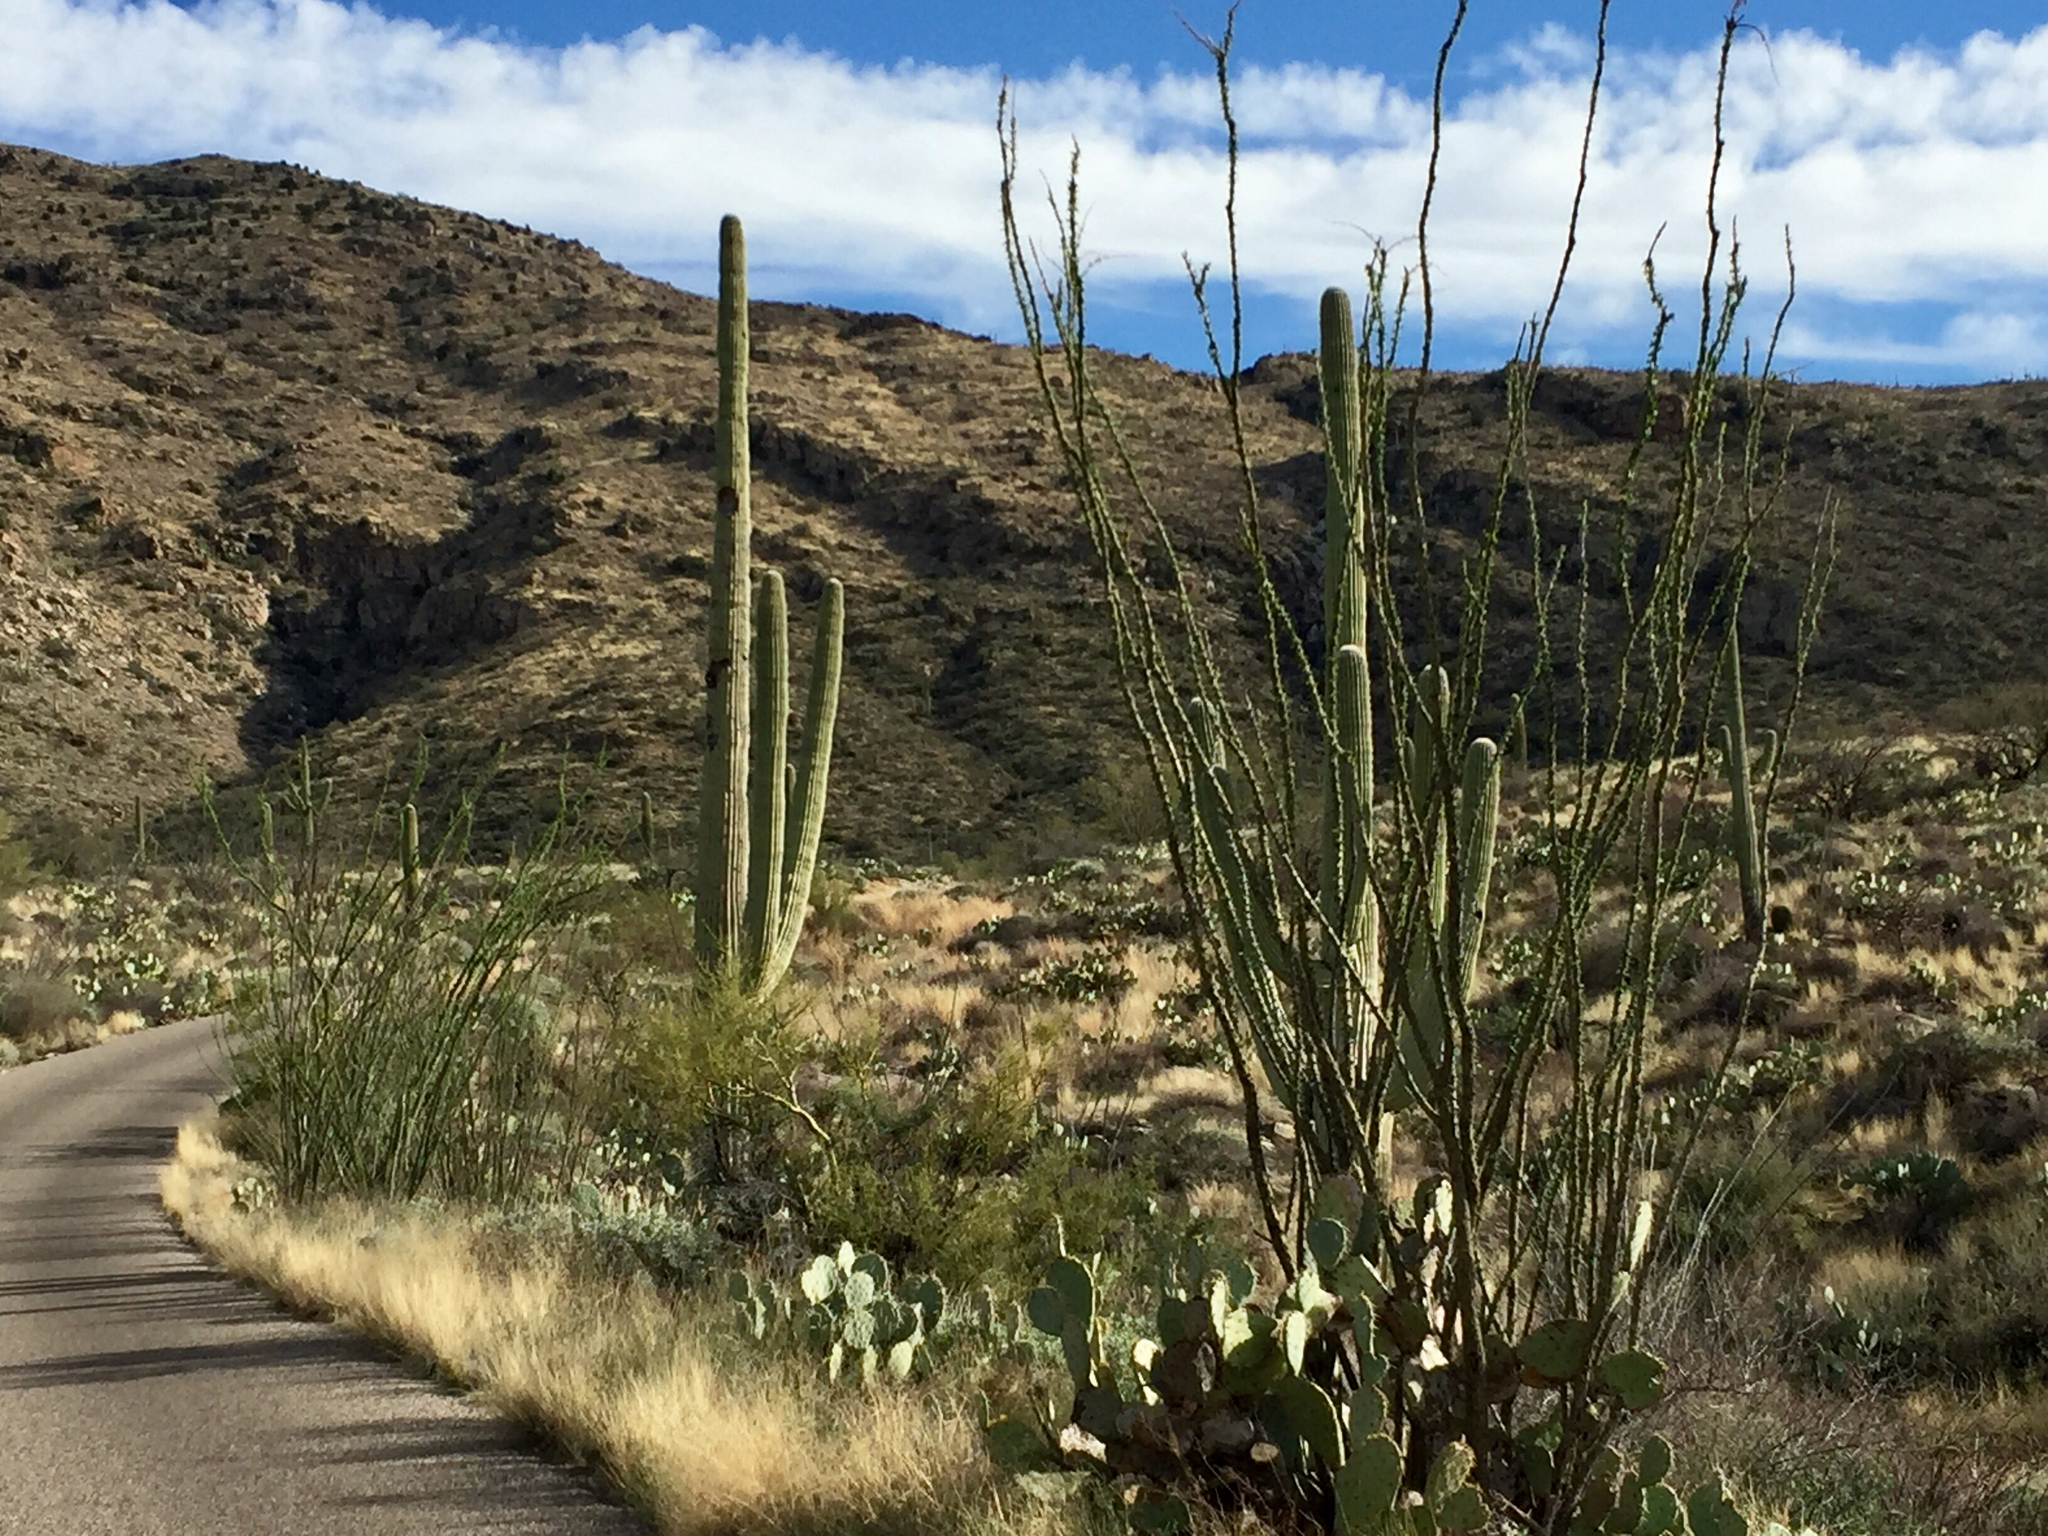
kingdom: Plantae
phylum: Tracheophyta
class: Magnoliopsida
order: Ericales
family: Fouquieriaceae
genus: Fouquieria
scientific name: Fouquieria splendens
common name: Vine-cactus
